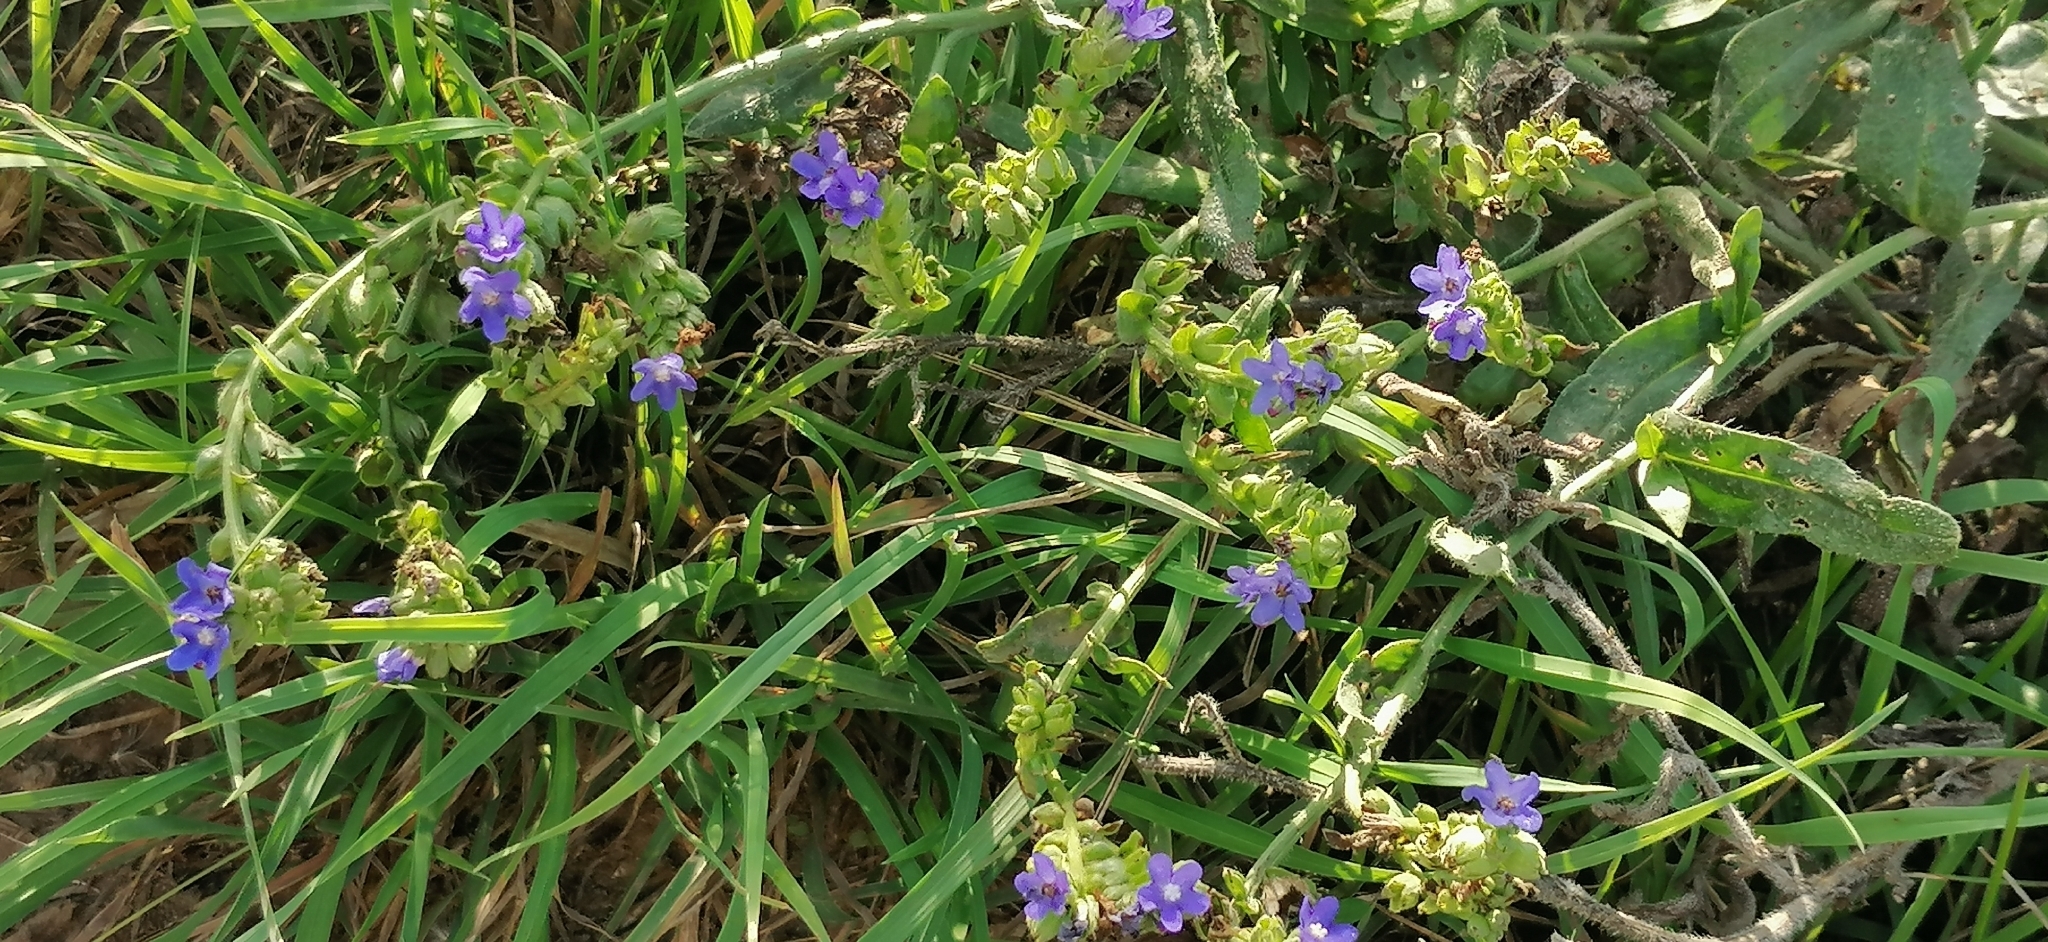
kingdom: Plantae
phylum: Tracheophyta
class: Magnoliopsida
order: Boraginales
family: Boraginaceae
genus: Anchusa
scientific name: Anchusa officinalis
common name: Alkanet
